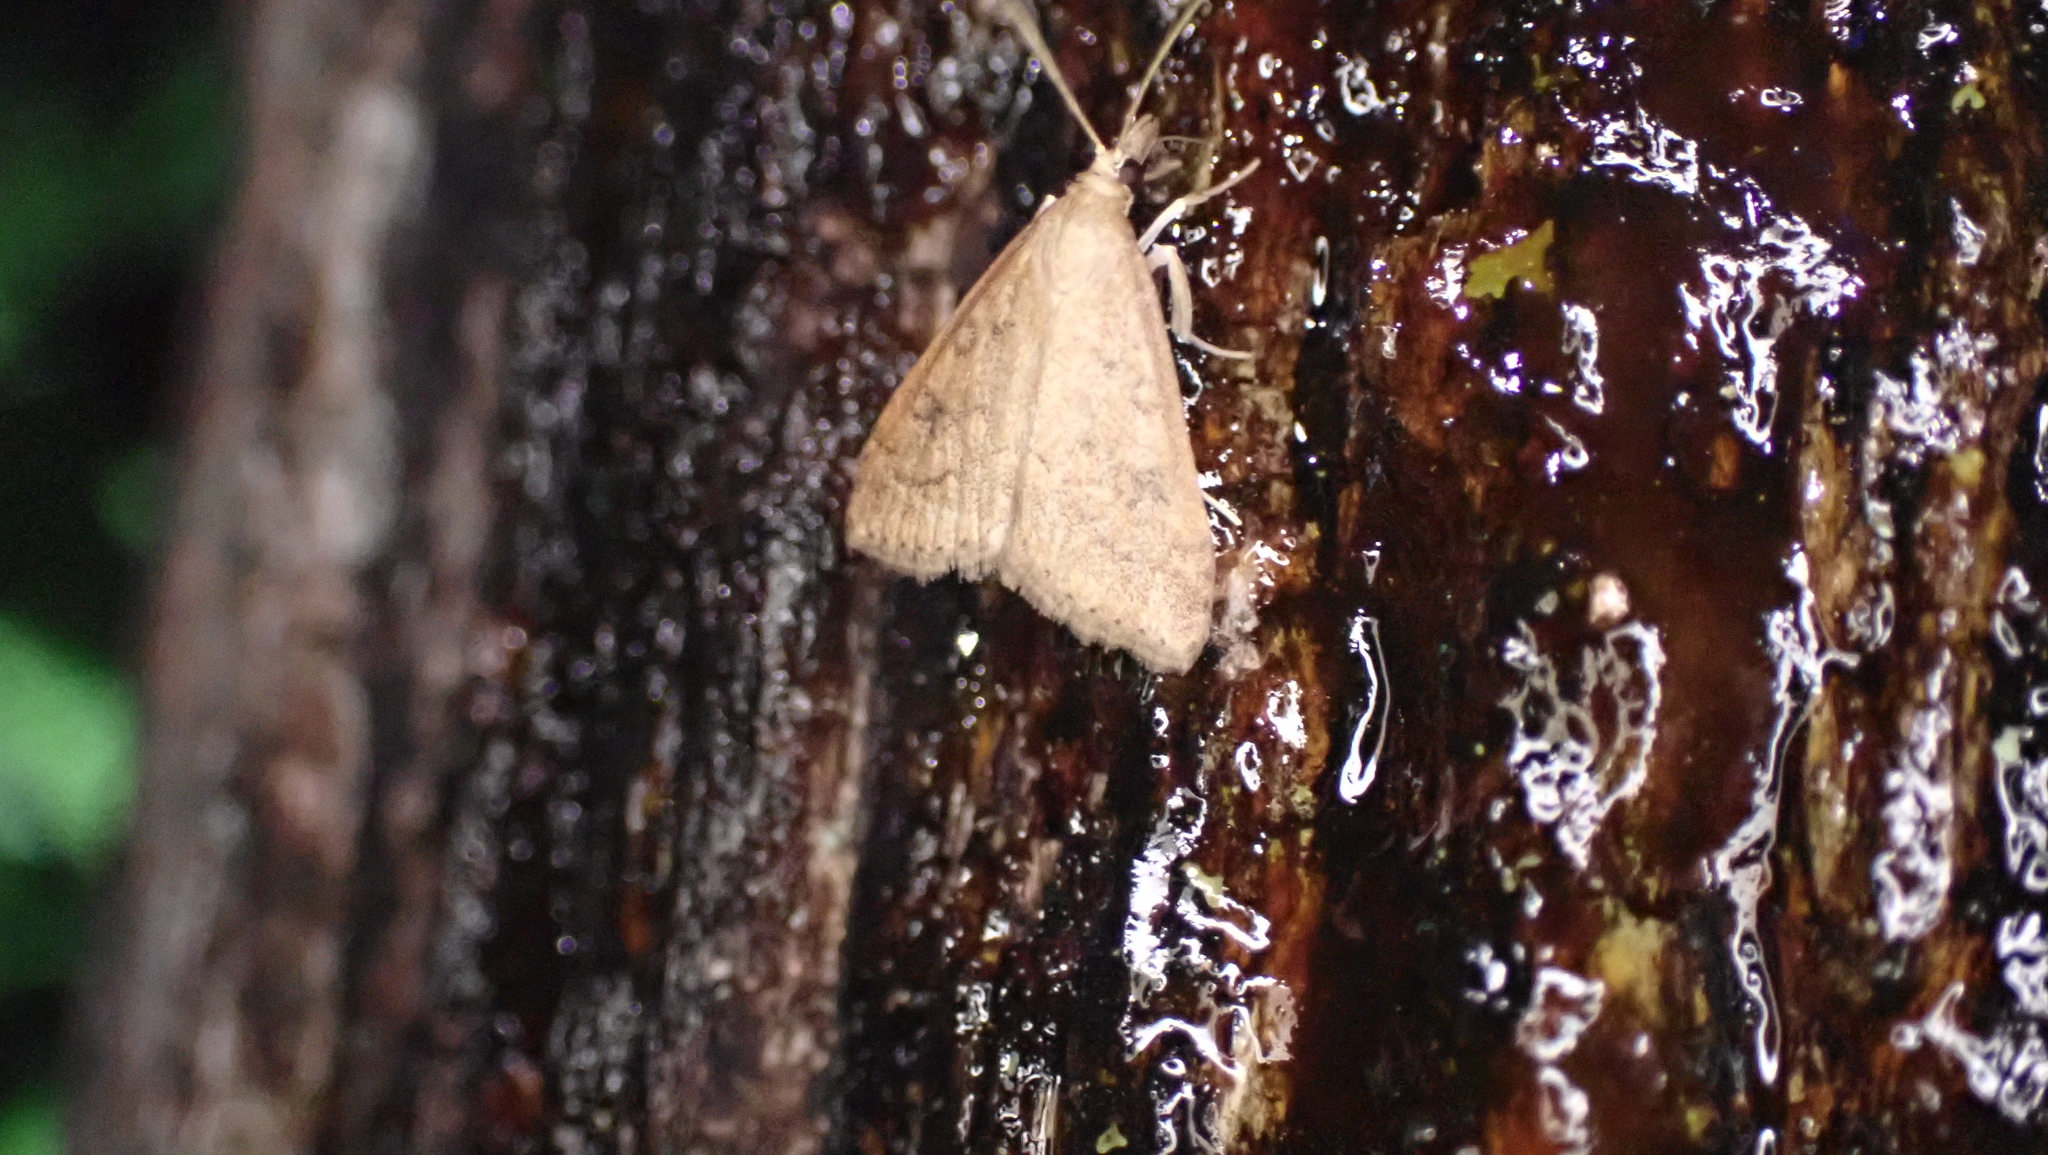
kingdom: Animalia
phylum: Arthropoda
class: Insecta
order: Lepidoptera
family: Crambidae
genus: Udea
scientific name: Udea rubigalis
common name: Celery leaftier moth
